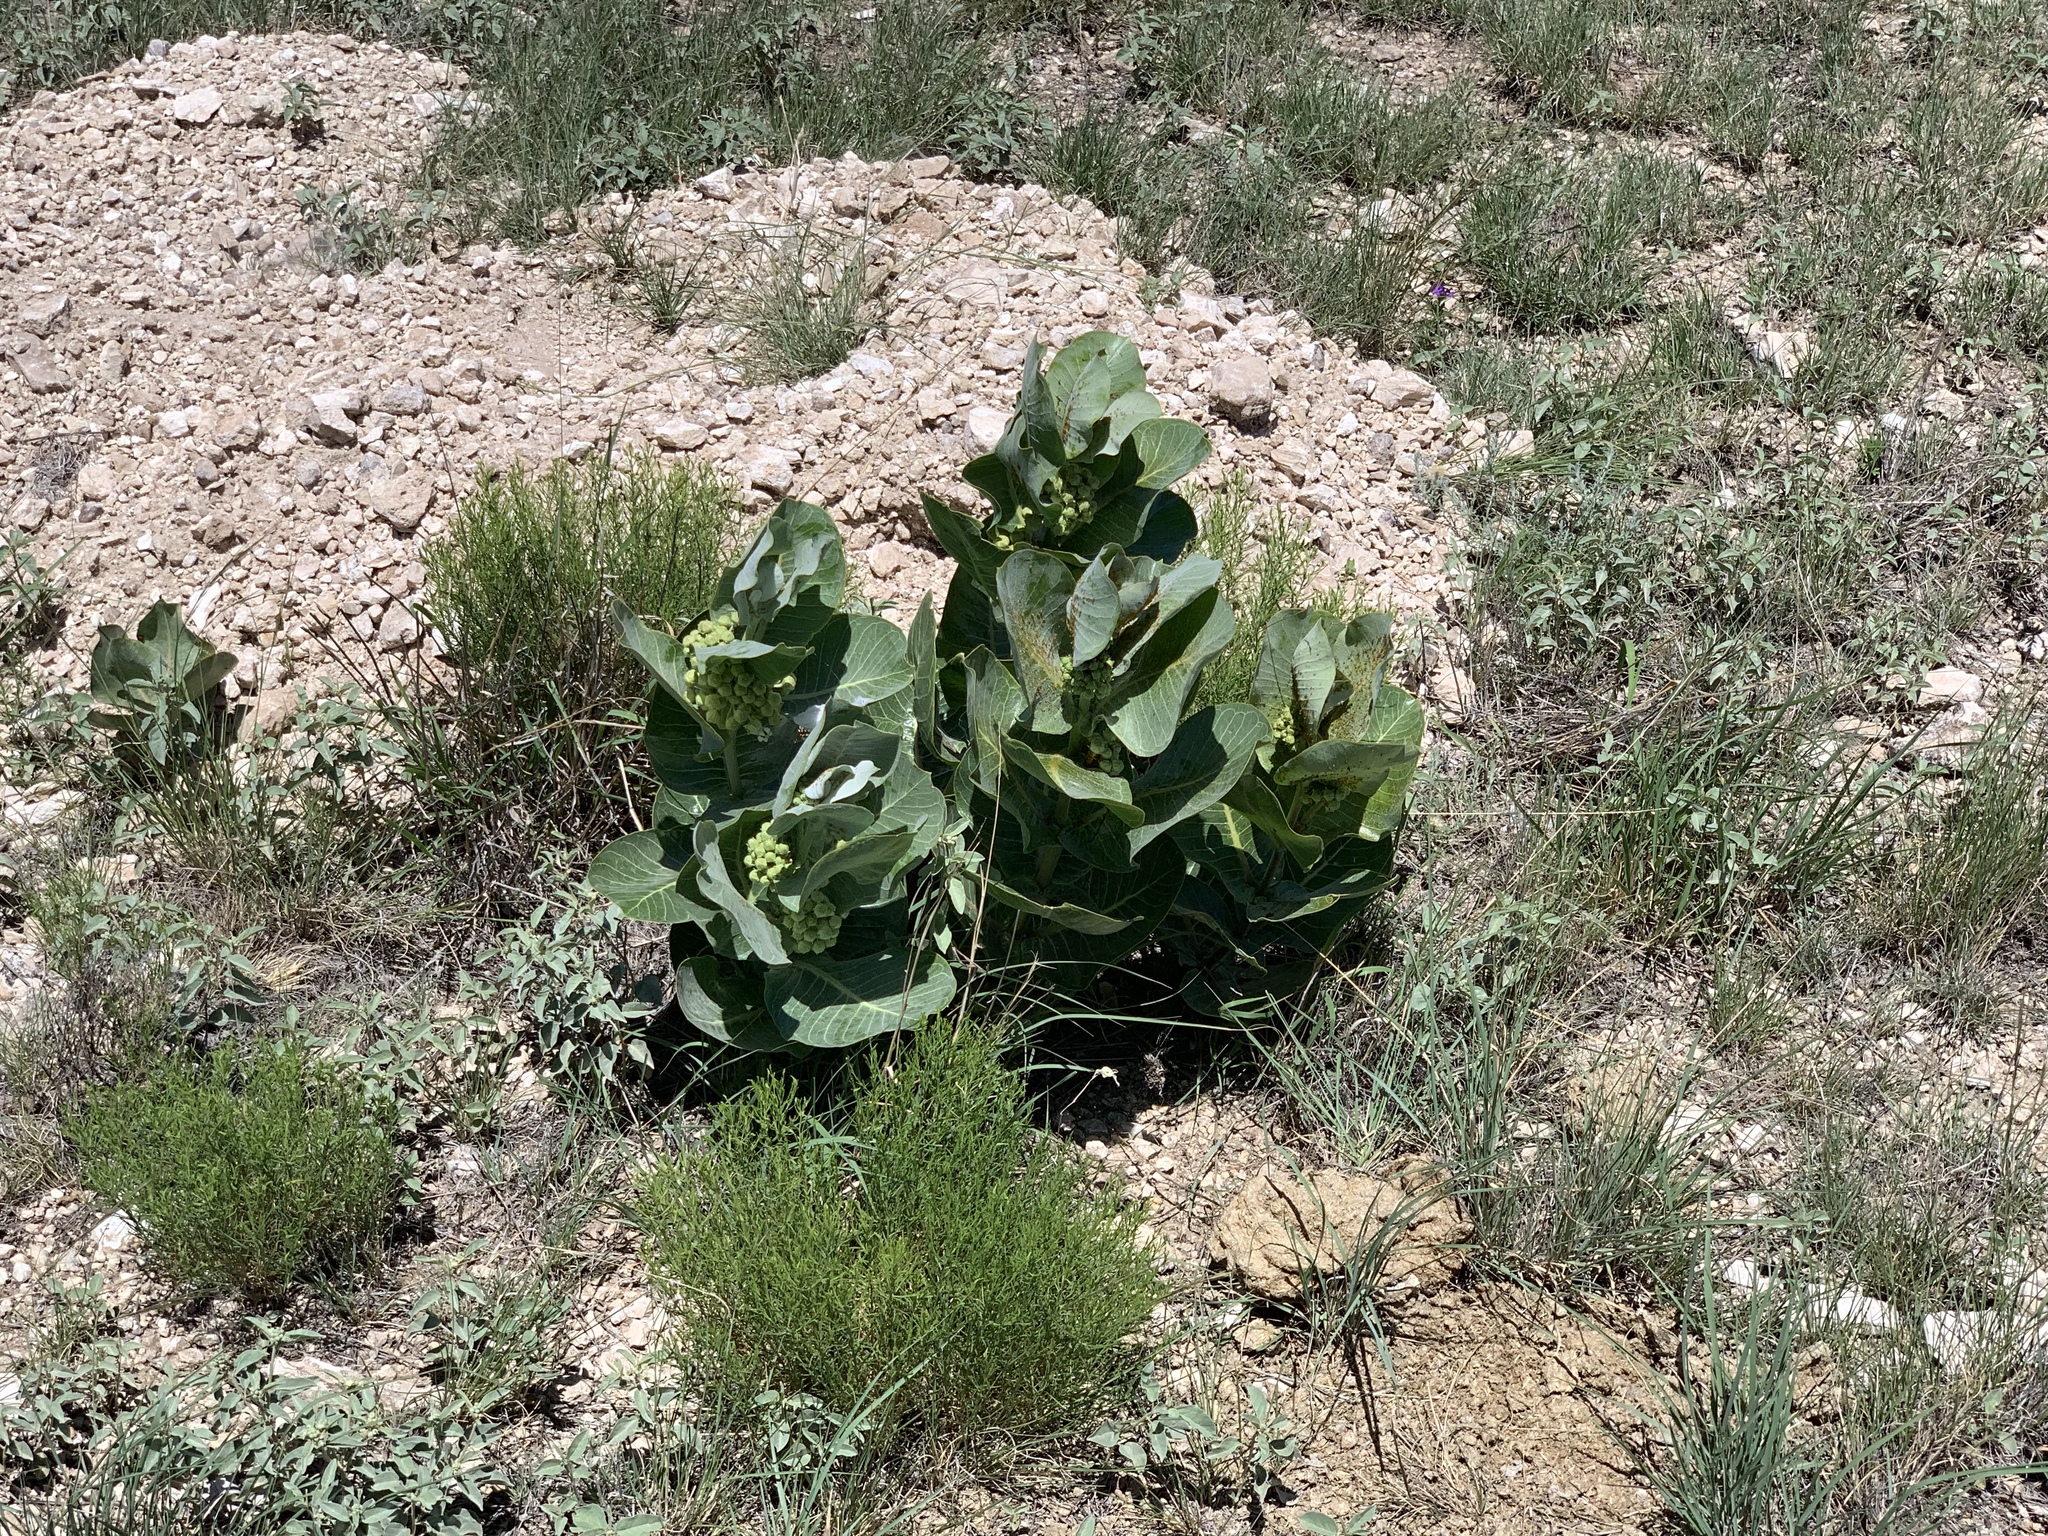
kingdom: Plantae
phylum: Tracheophyta
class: Magnoliopsida
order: Gentianales
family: Apocynaceae
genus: Asclepias
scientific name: Asclepias latifolia
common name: Broadleaf milkweed
